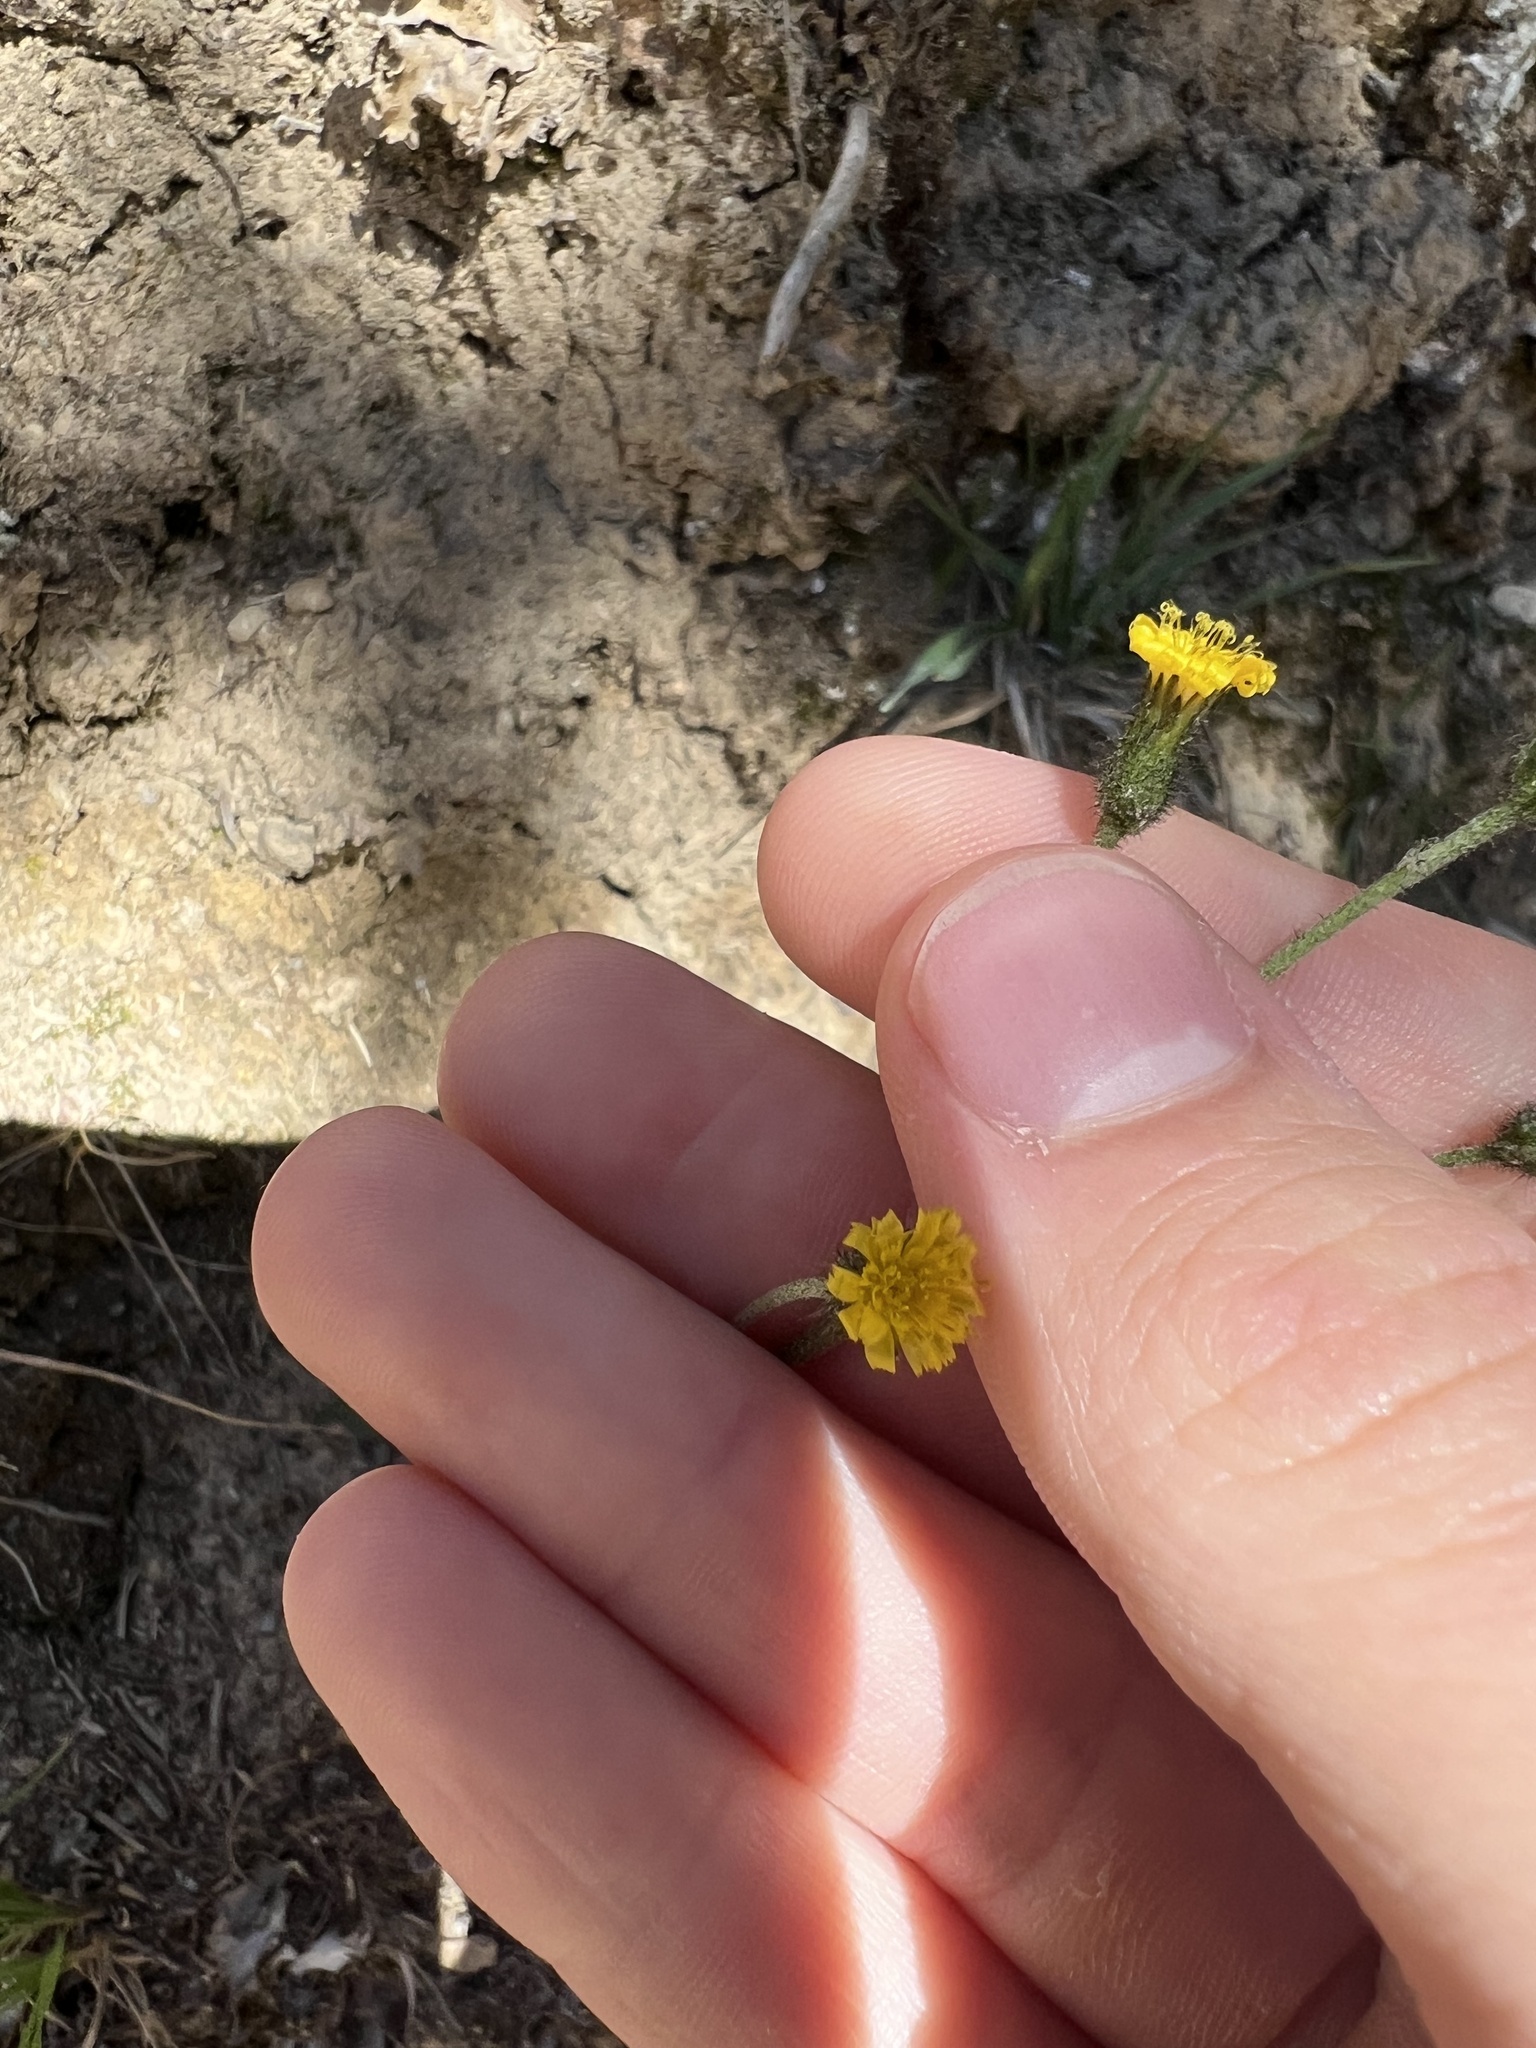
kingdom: Plantae
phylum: Tracheophyta
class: Magnoliopsida
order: Asterales
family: Asteraceae
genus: Hieracium
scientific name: Hieracium triste
